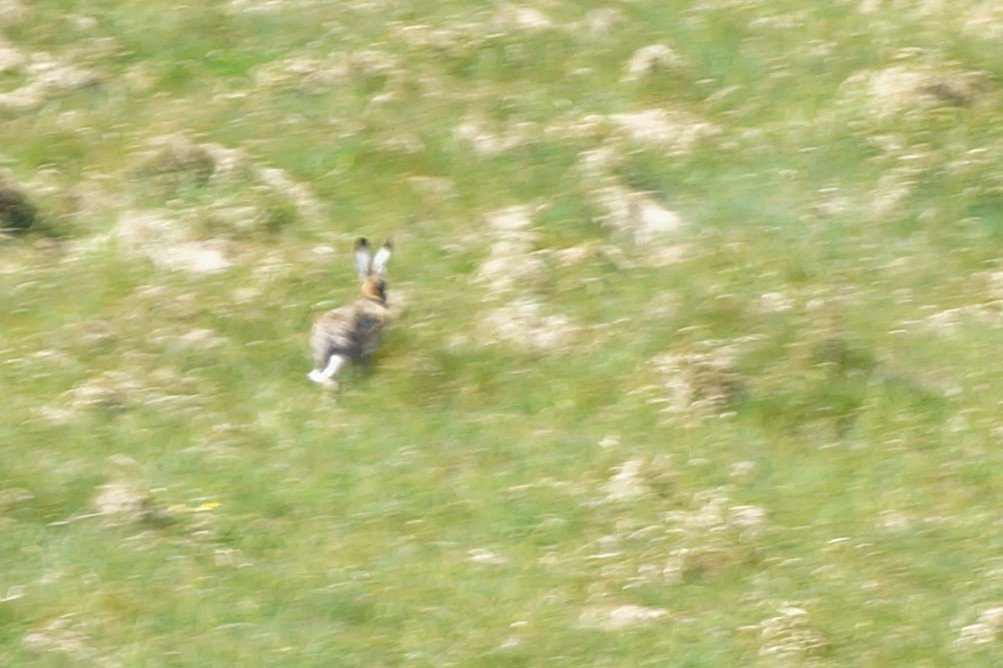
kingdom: Animalia
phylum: Chordata
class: Mammalia
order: Lagomorpha
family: Leporidae
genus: Lepus
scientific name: Lepus europaeus
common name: European hare
